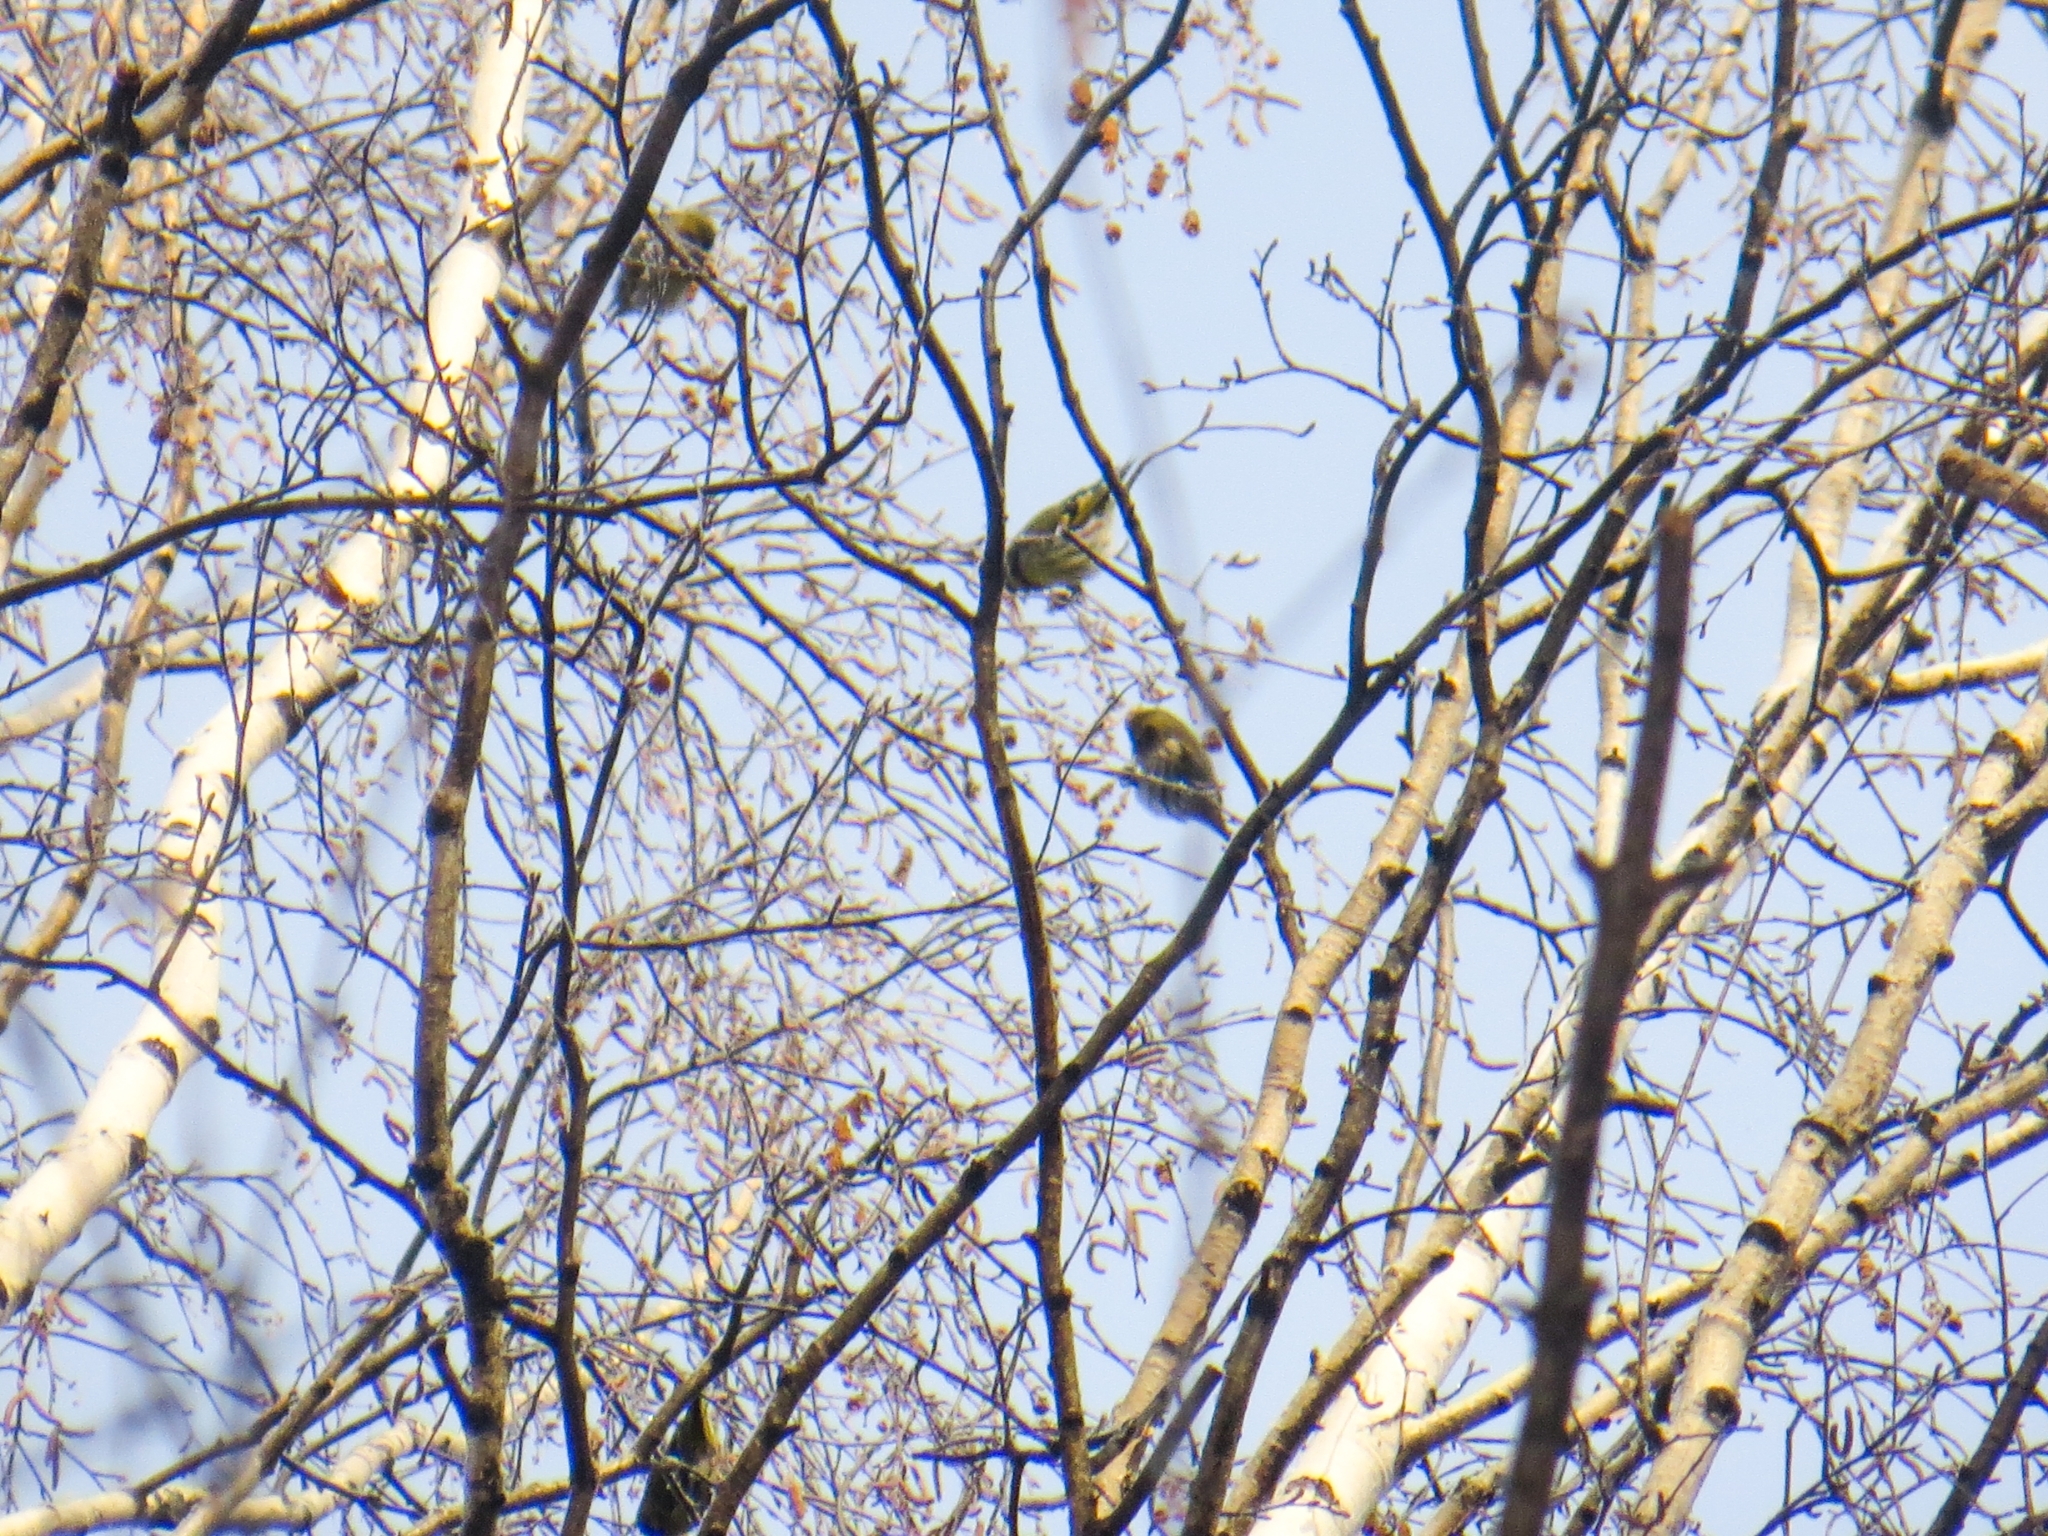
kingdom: Animalia
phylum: Chordata
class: Aves
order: Passeriformes
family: Fringillidae
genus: Spinus
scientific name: Spinus spinus
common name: Eurasian siskin
